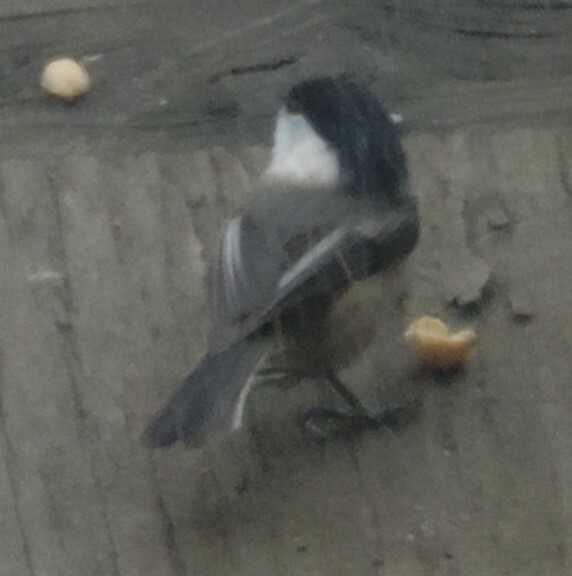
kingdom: Animalia
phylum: Chordata
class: Aves
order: Passeriformes
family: Paridae
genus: Poecile
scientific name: Poecile atricapillus
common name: Black-capped chickadee
